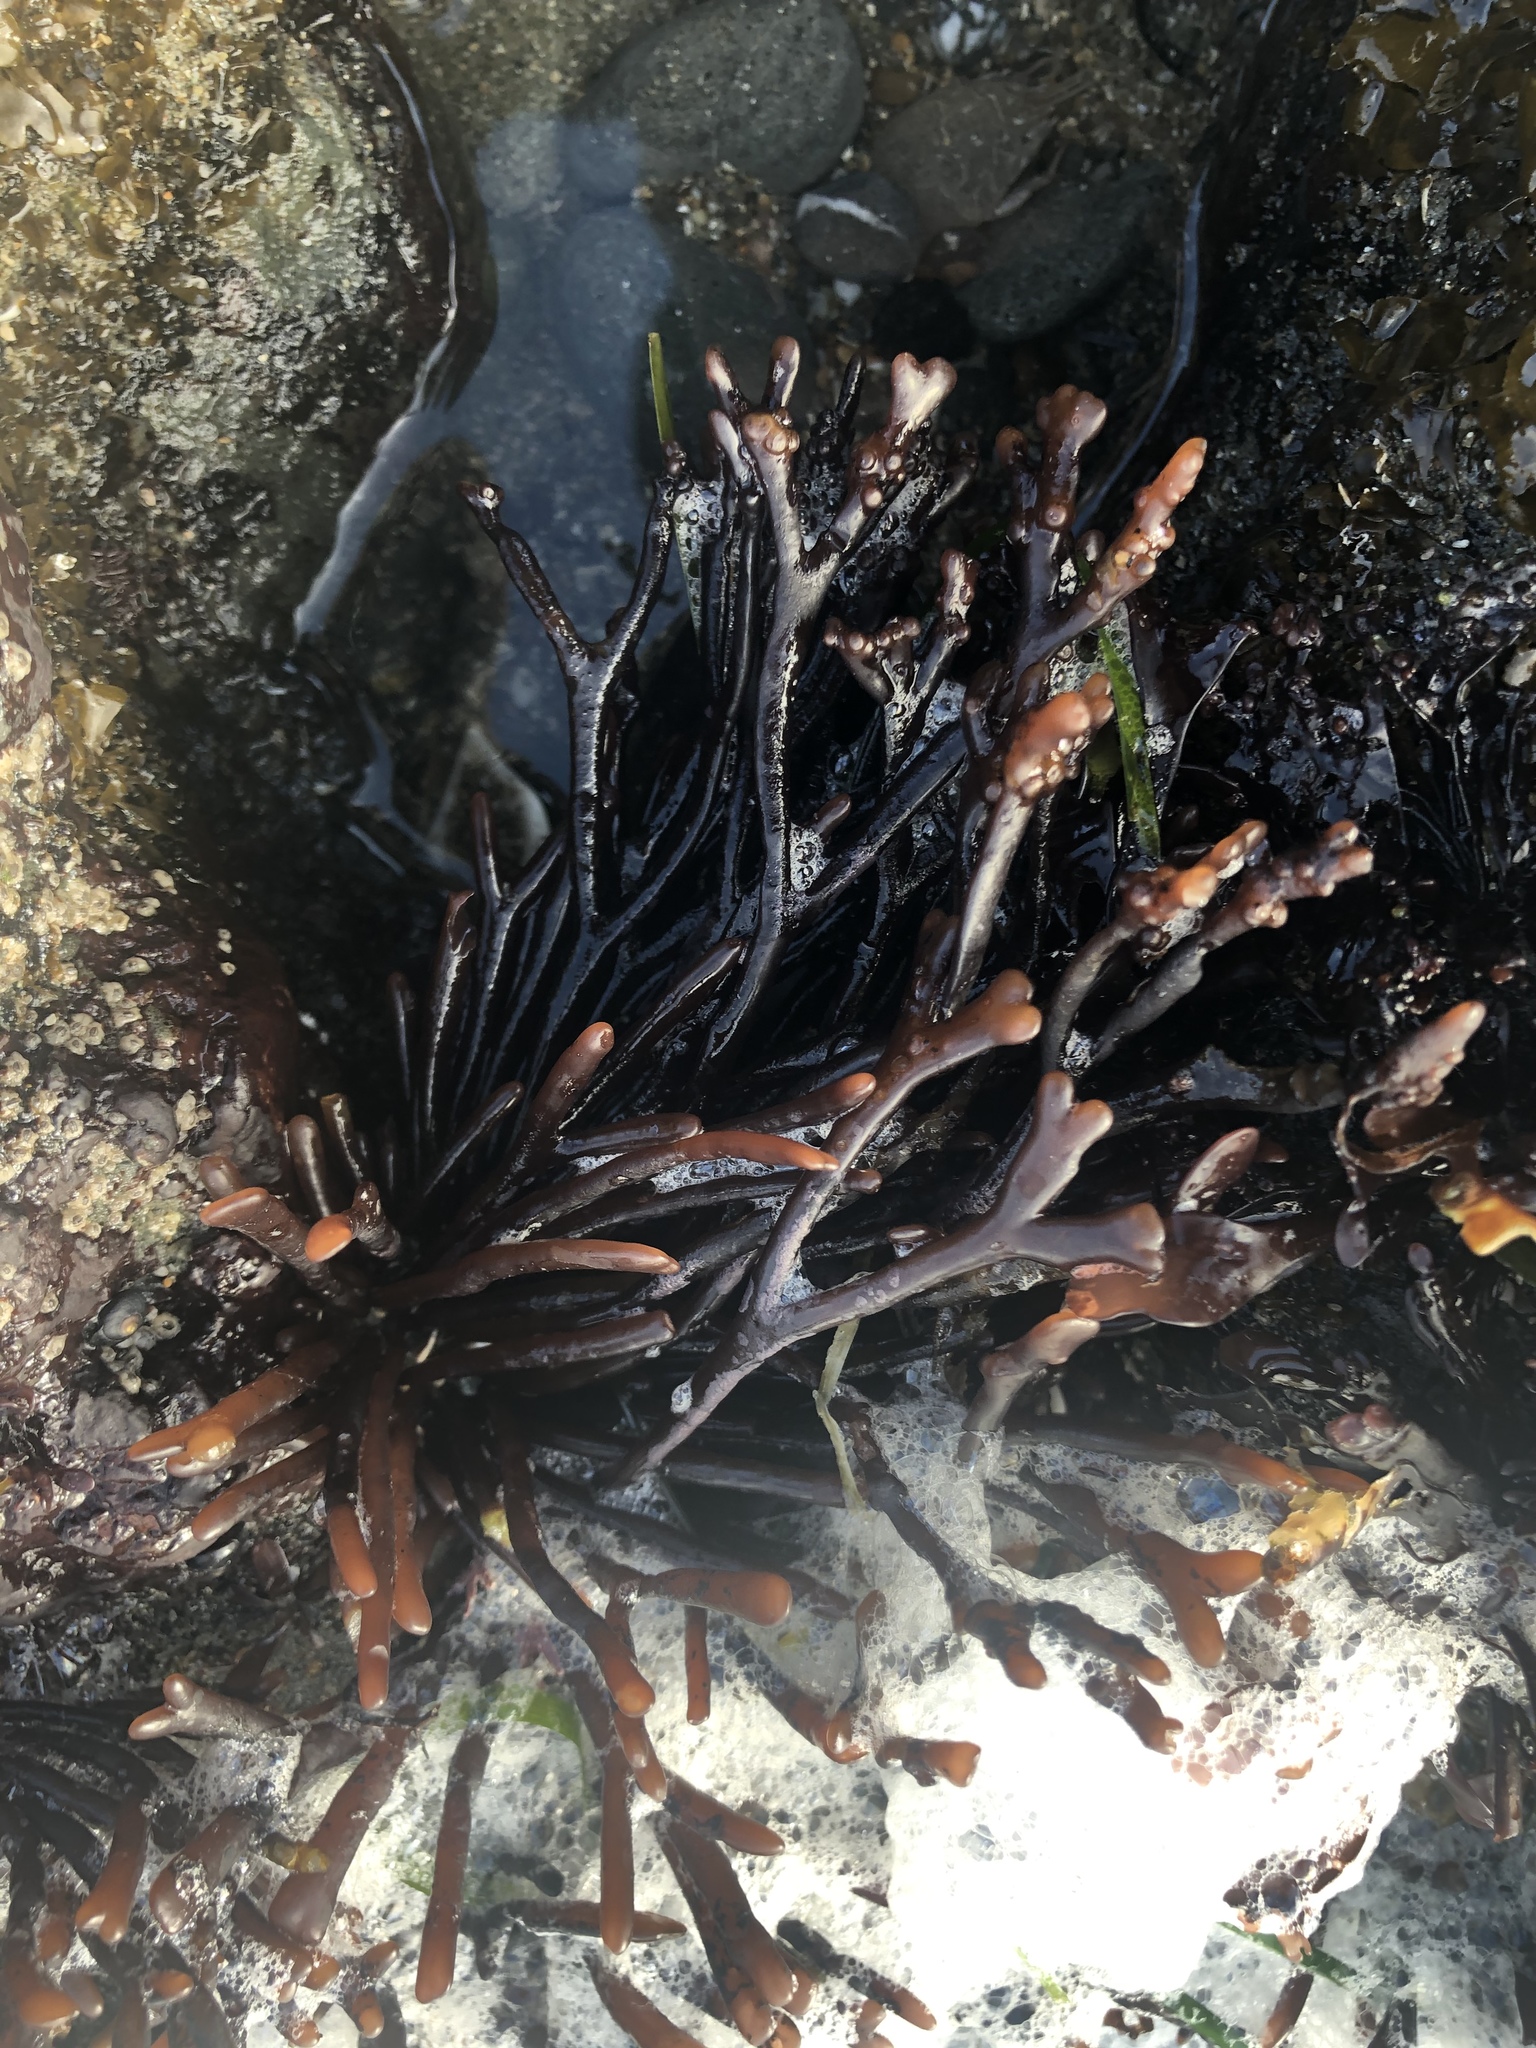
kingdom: Plantae
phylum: Rhodophyta
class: Florideophyceae
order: Gigartinales
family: Phyllophoraceae
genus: Ahnfeltiopsis
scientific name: Ahnfeltiopsis linearis
